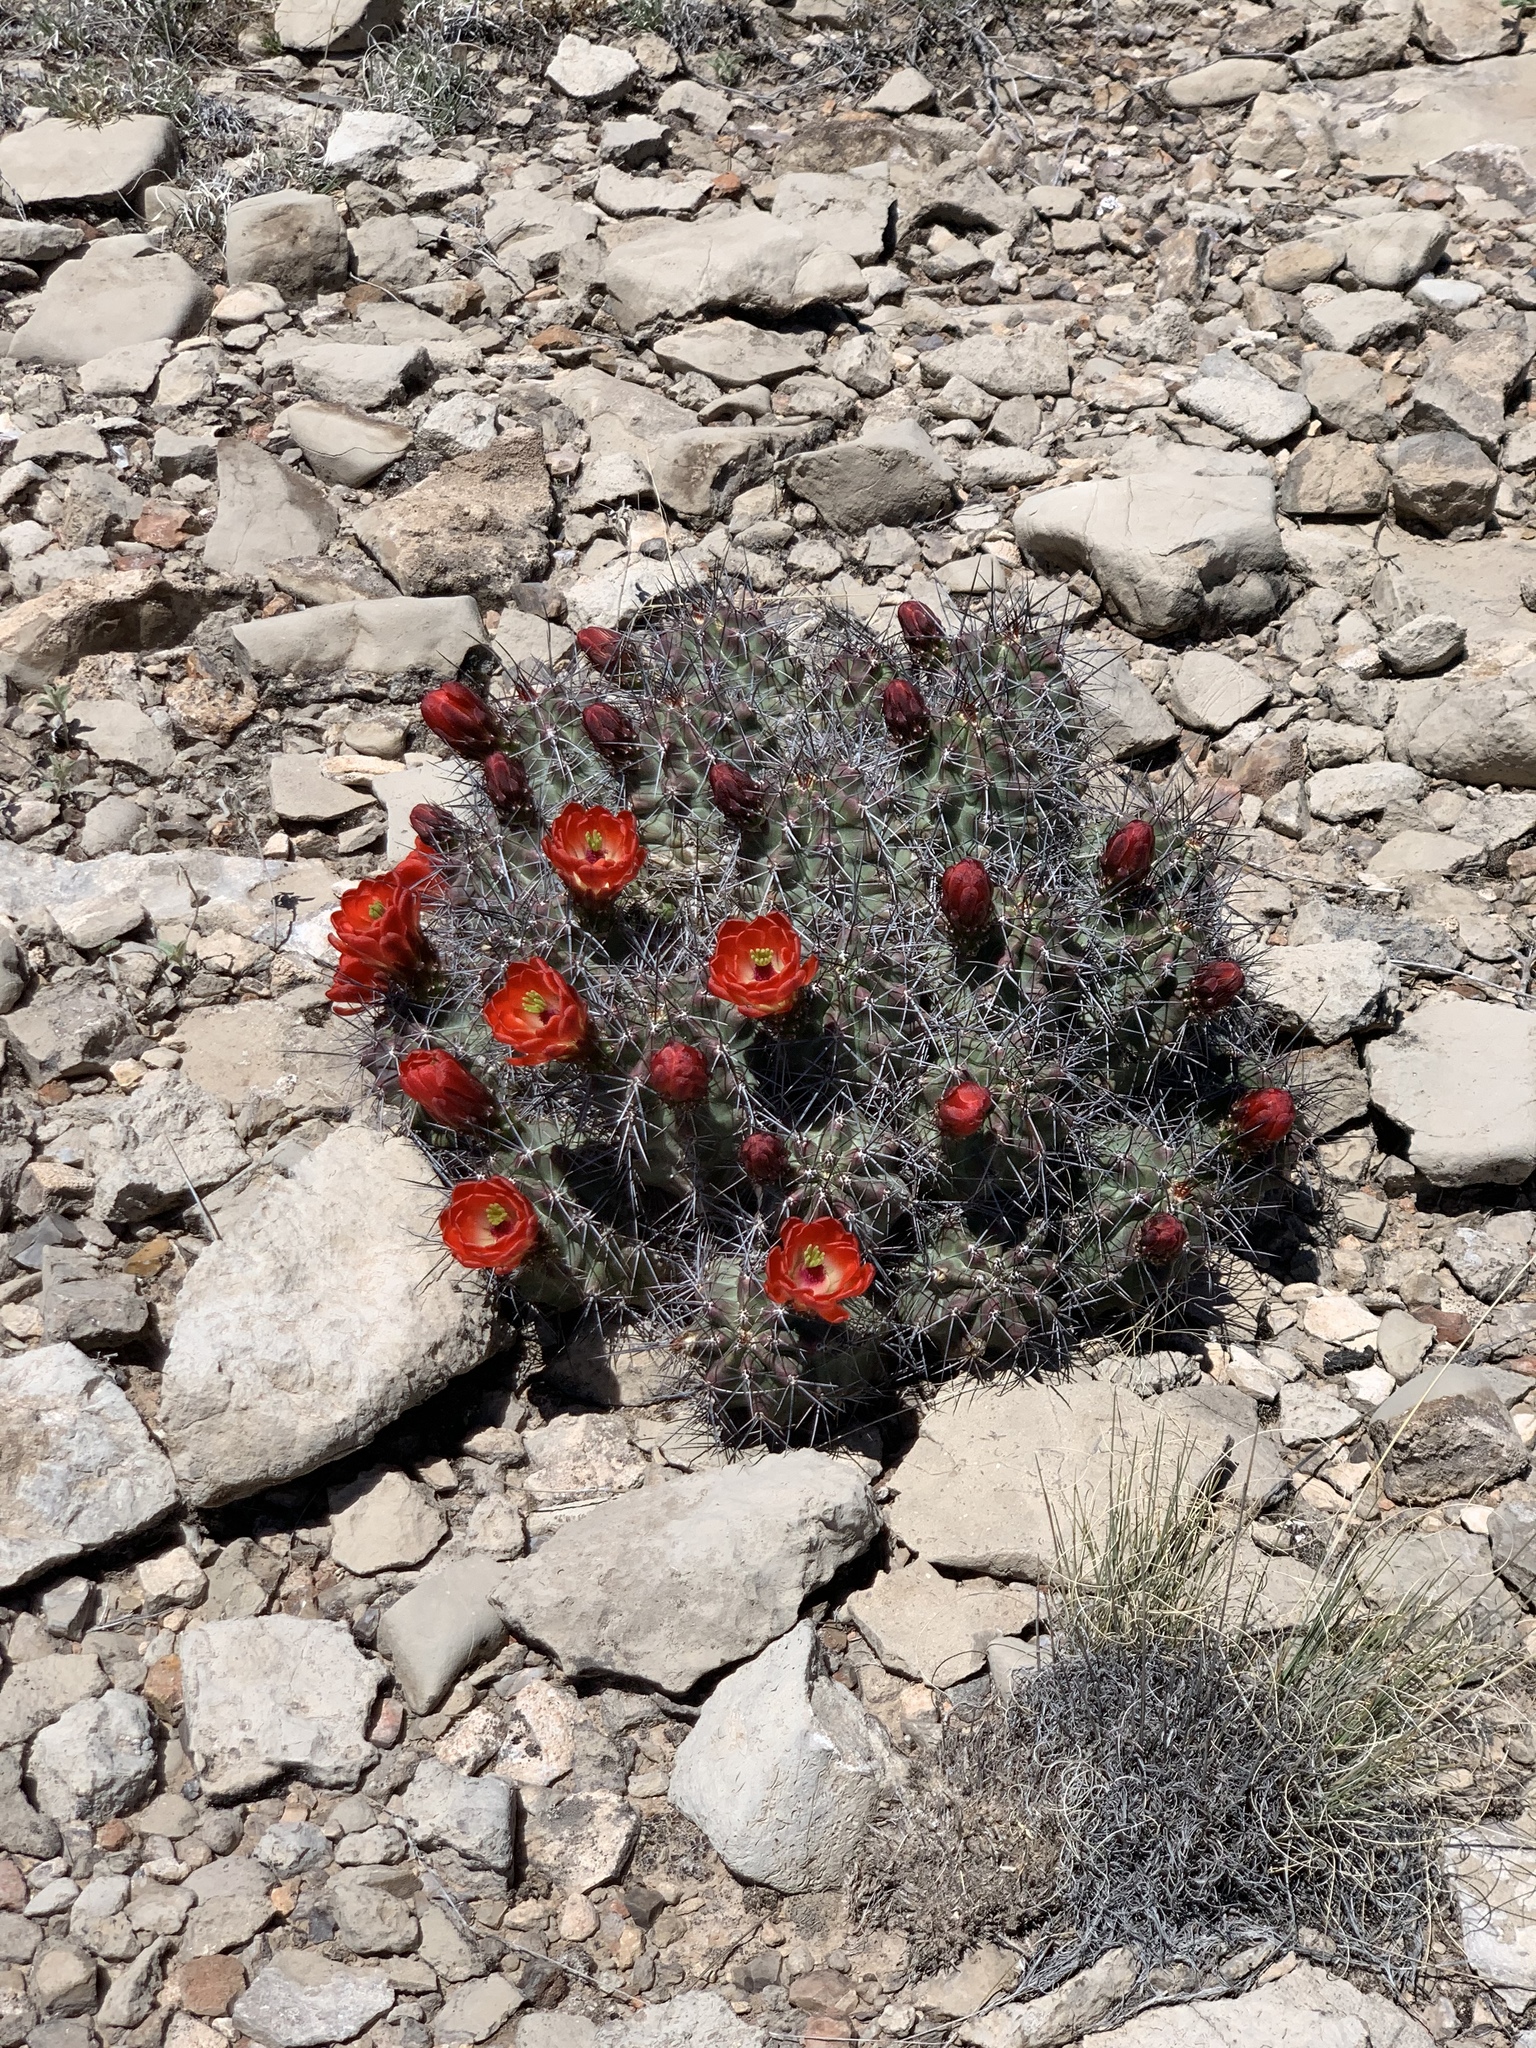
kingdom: Plantae
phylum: Tracheophyta
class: Magnoliopsida
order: Caryophyllales
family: Cactaceae
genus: Echinocereus
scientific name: Echinocereus coccineus
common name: Scarlet hedgehog cactus
